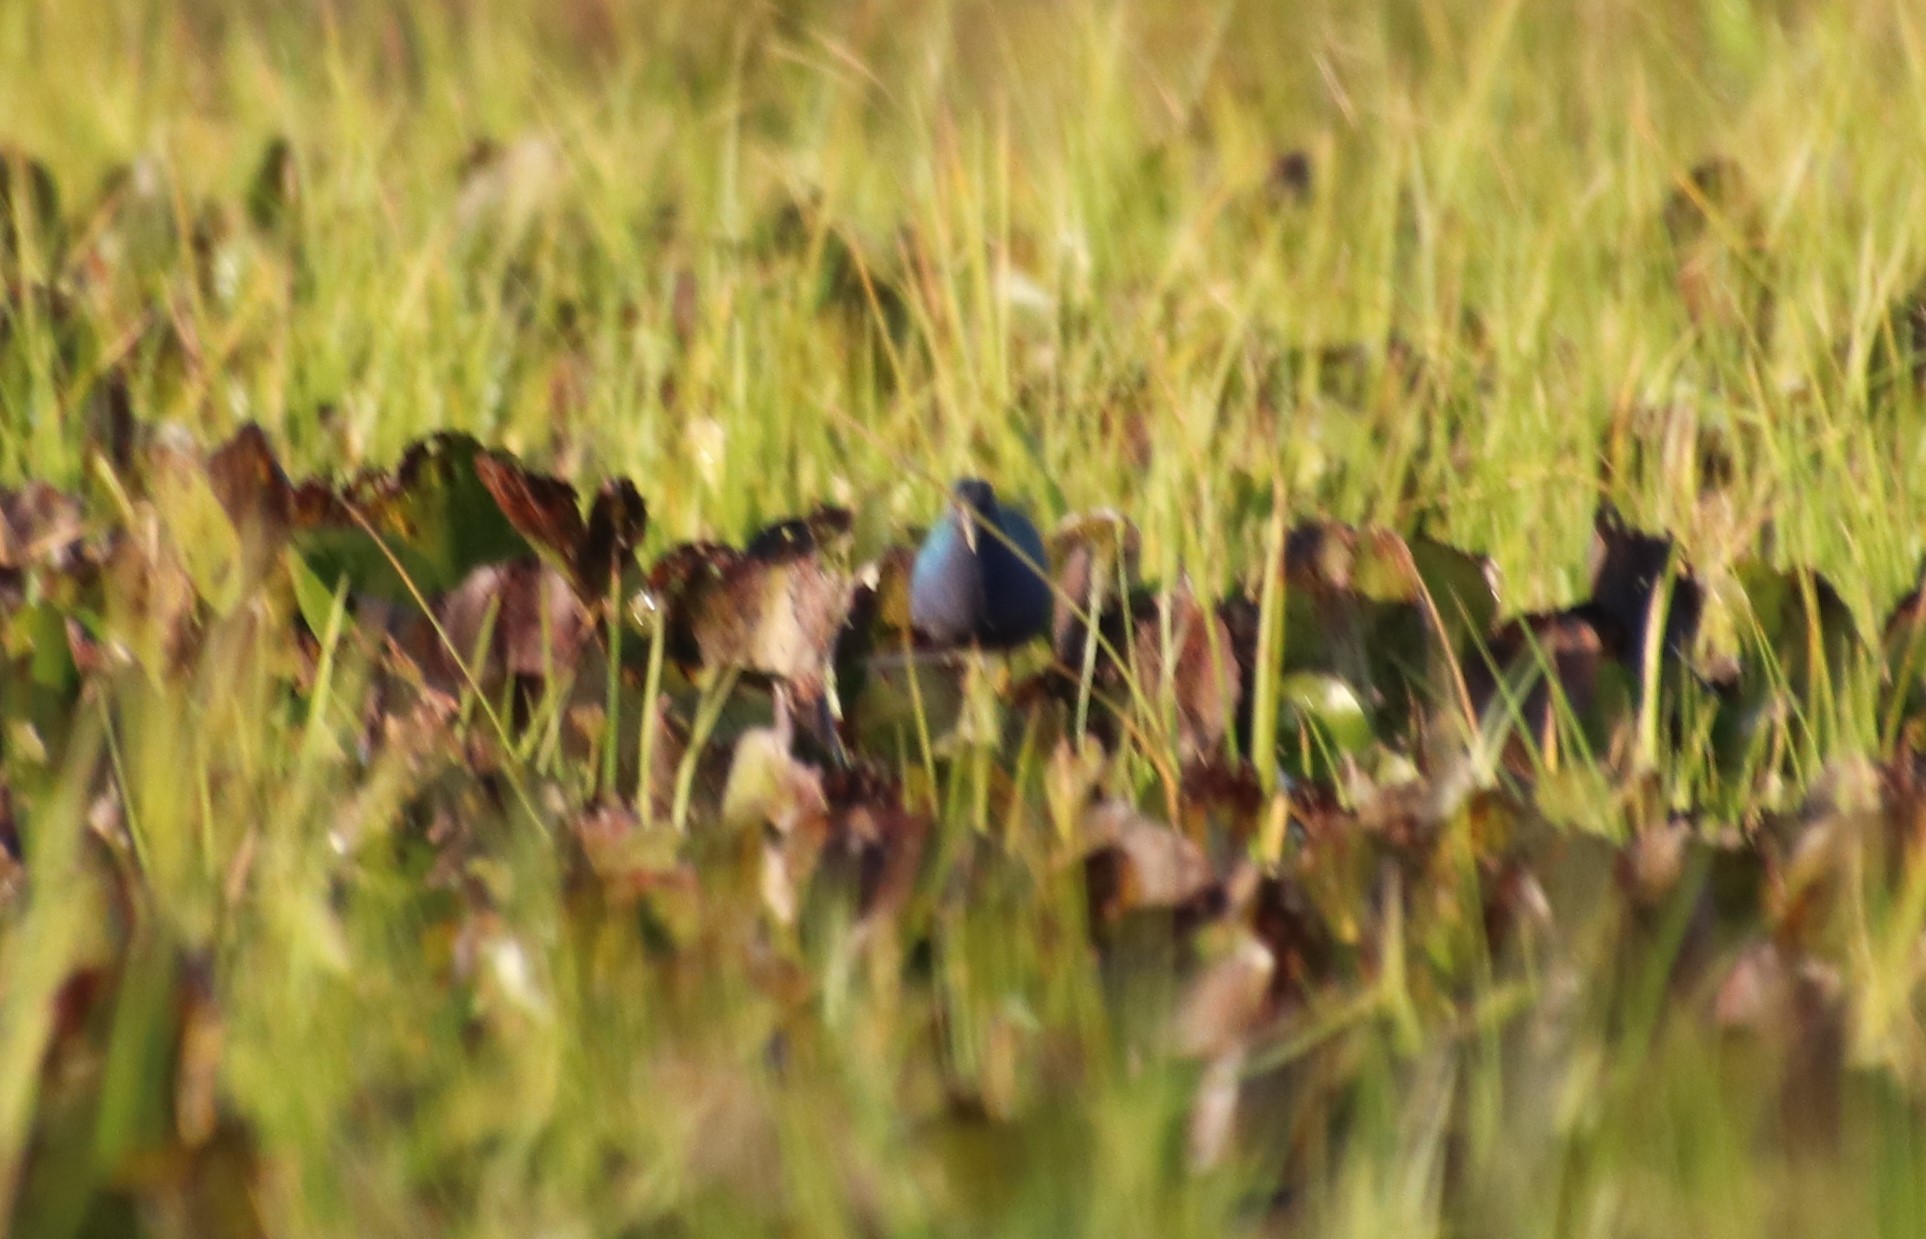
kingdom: Animalia
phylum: Chordata
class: Aves
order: Gruiformes
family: Rallidae
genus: Porphyrio
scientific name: Porphyrio martinica
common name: Purple gallinule
